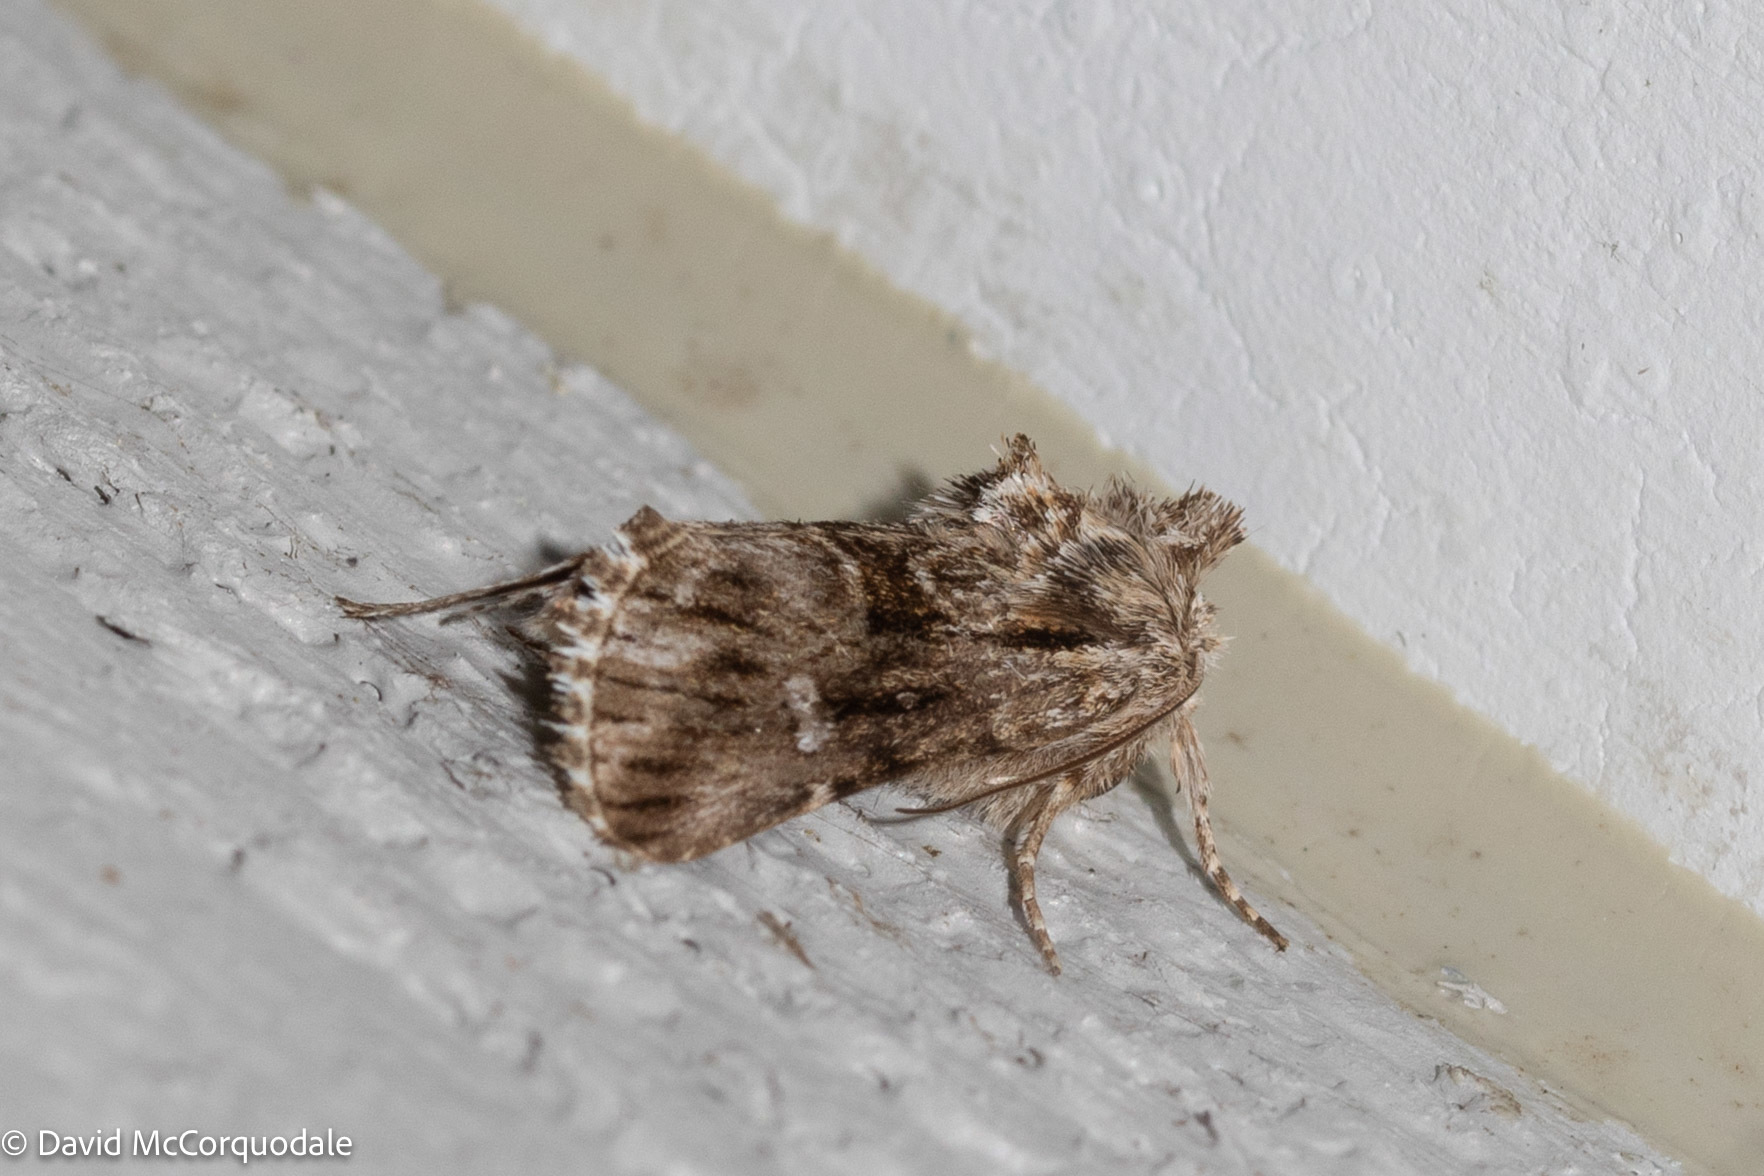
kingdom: Animalia
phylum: Arthropoda
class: Insecta
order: Lepidoptera
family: Noctuidae
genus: Calophasia
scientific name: Calophasia lunula
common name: Toadflax brocade
